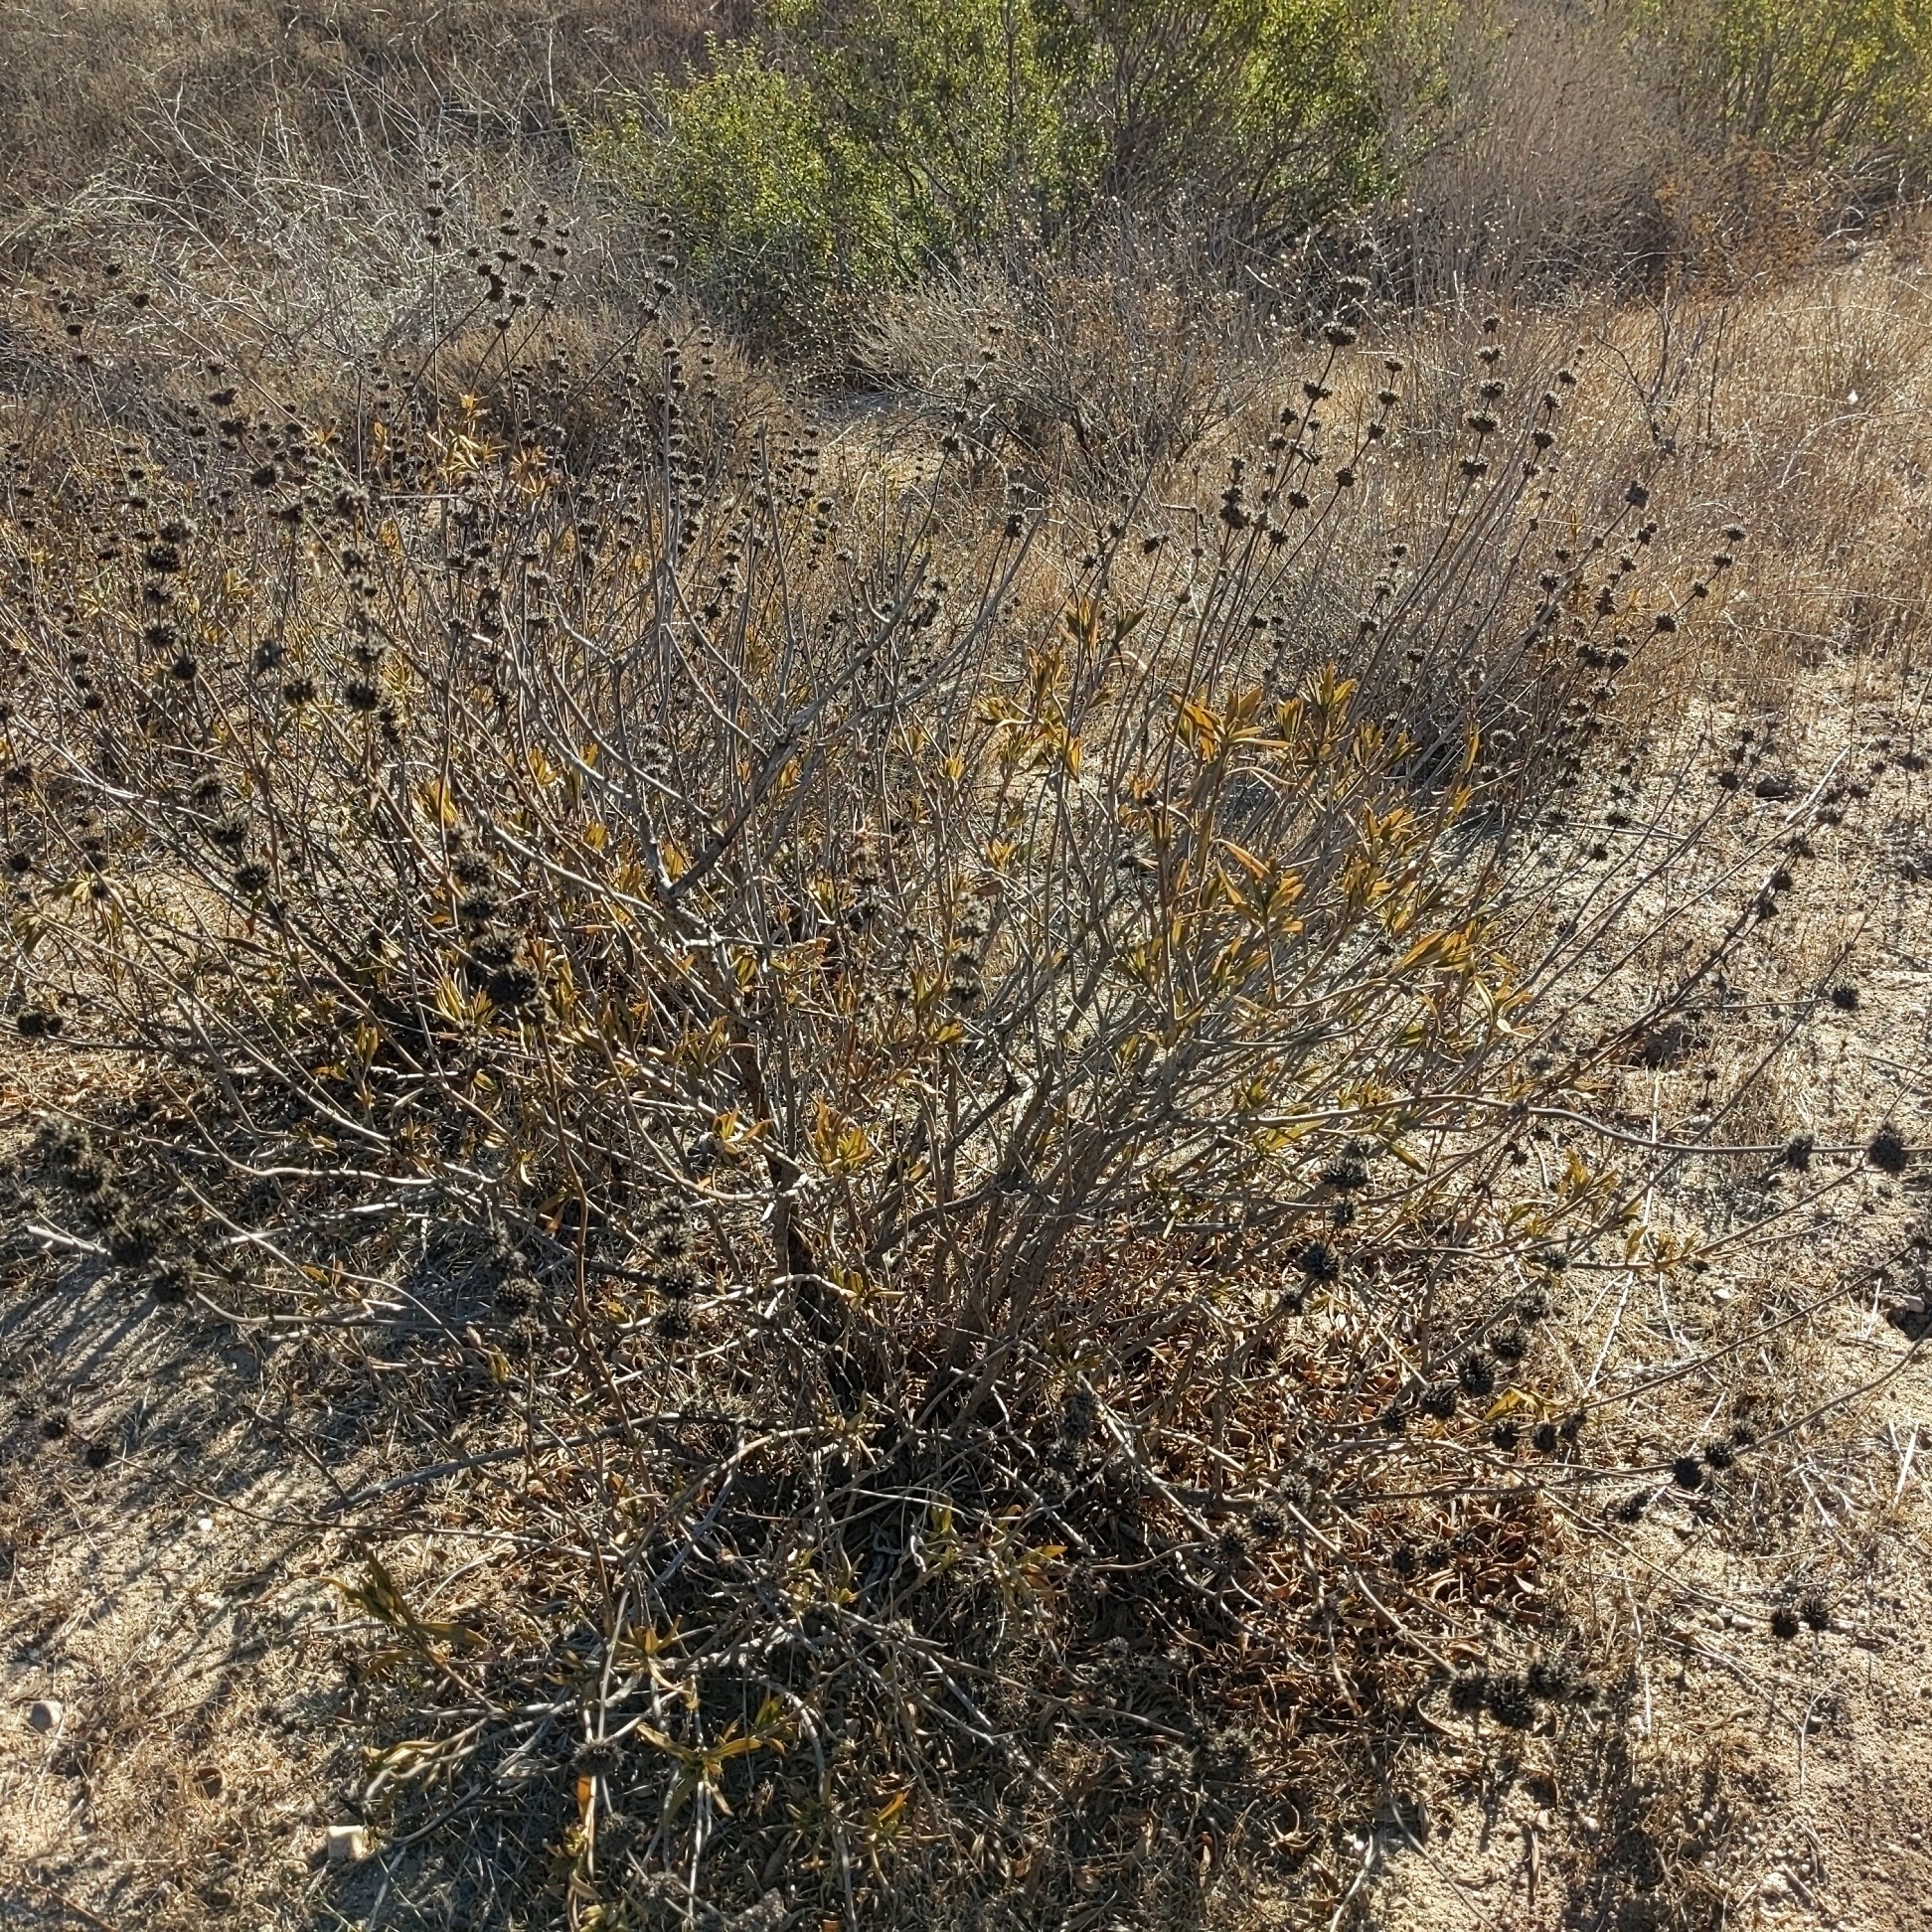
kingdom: Plantae
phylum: Tracheophyta
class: Magnoliopsida
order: Lamiales
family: Lamiaceae
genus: Salvia
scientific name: Salvia mellifera
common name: Black sage
